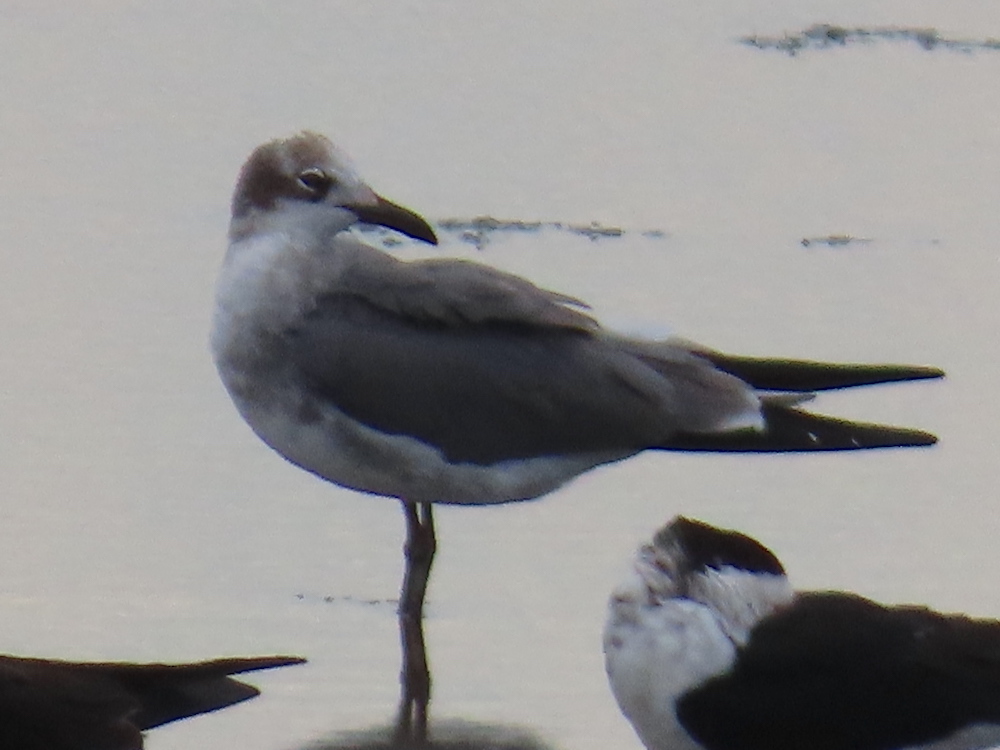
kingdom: Animalia
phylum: Chordata
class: Aves
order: Charadriiformes
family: Laridae
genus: Leucophaeus
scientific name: Leucophaeus atricilla
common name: Laughing gull
